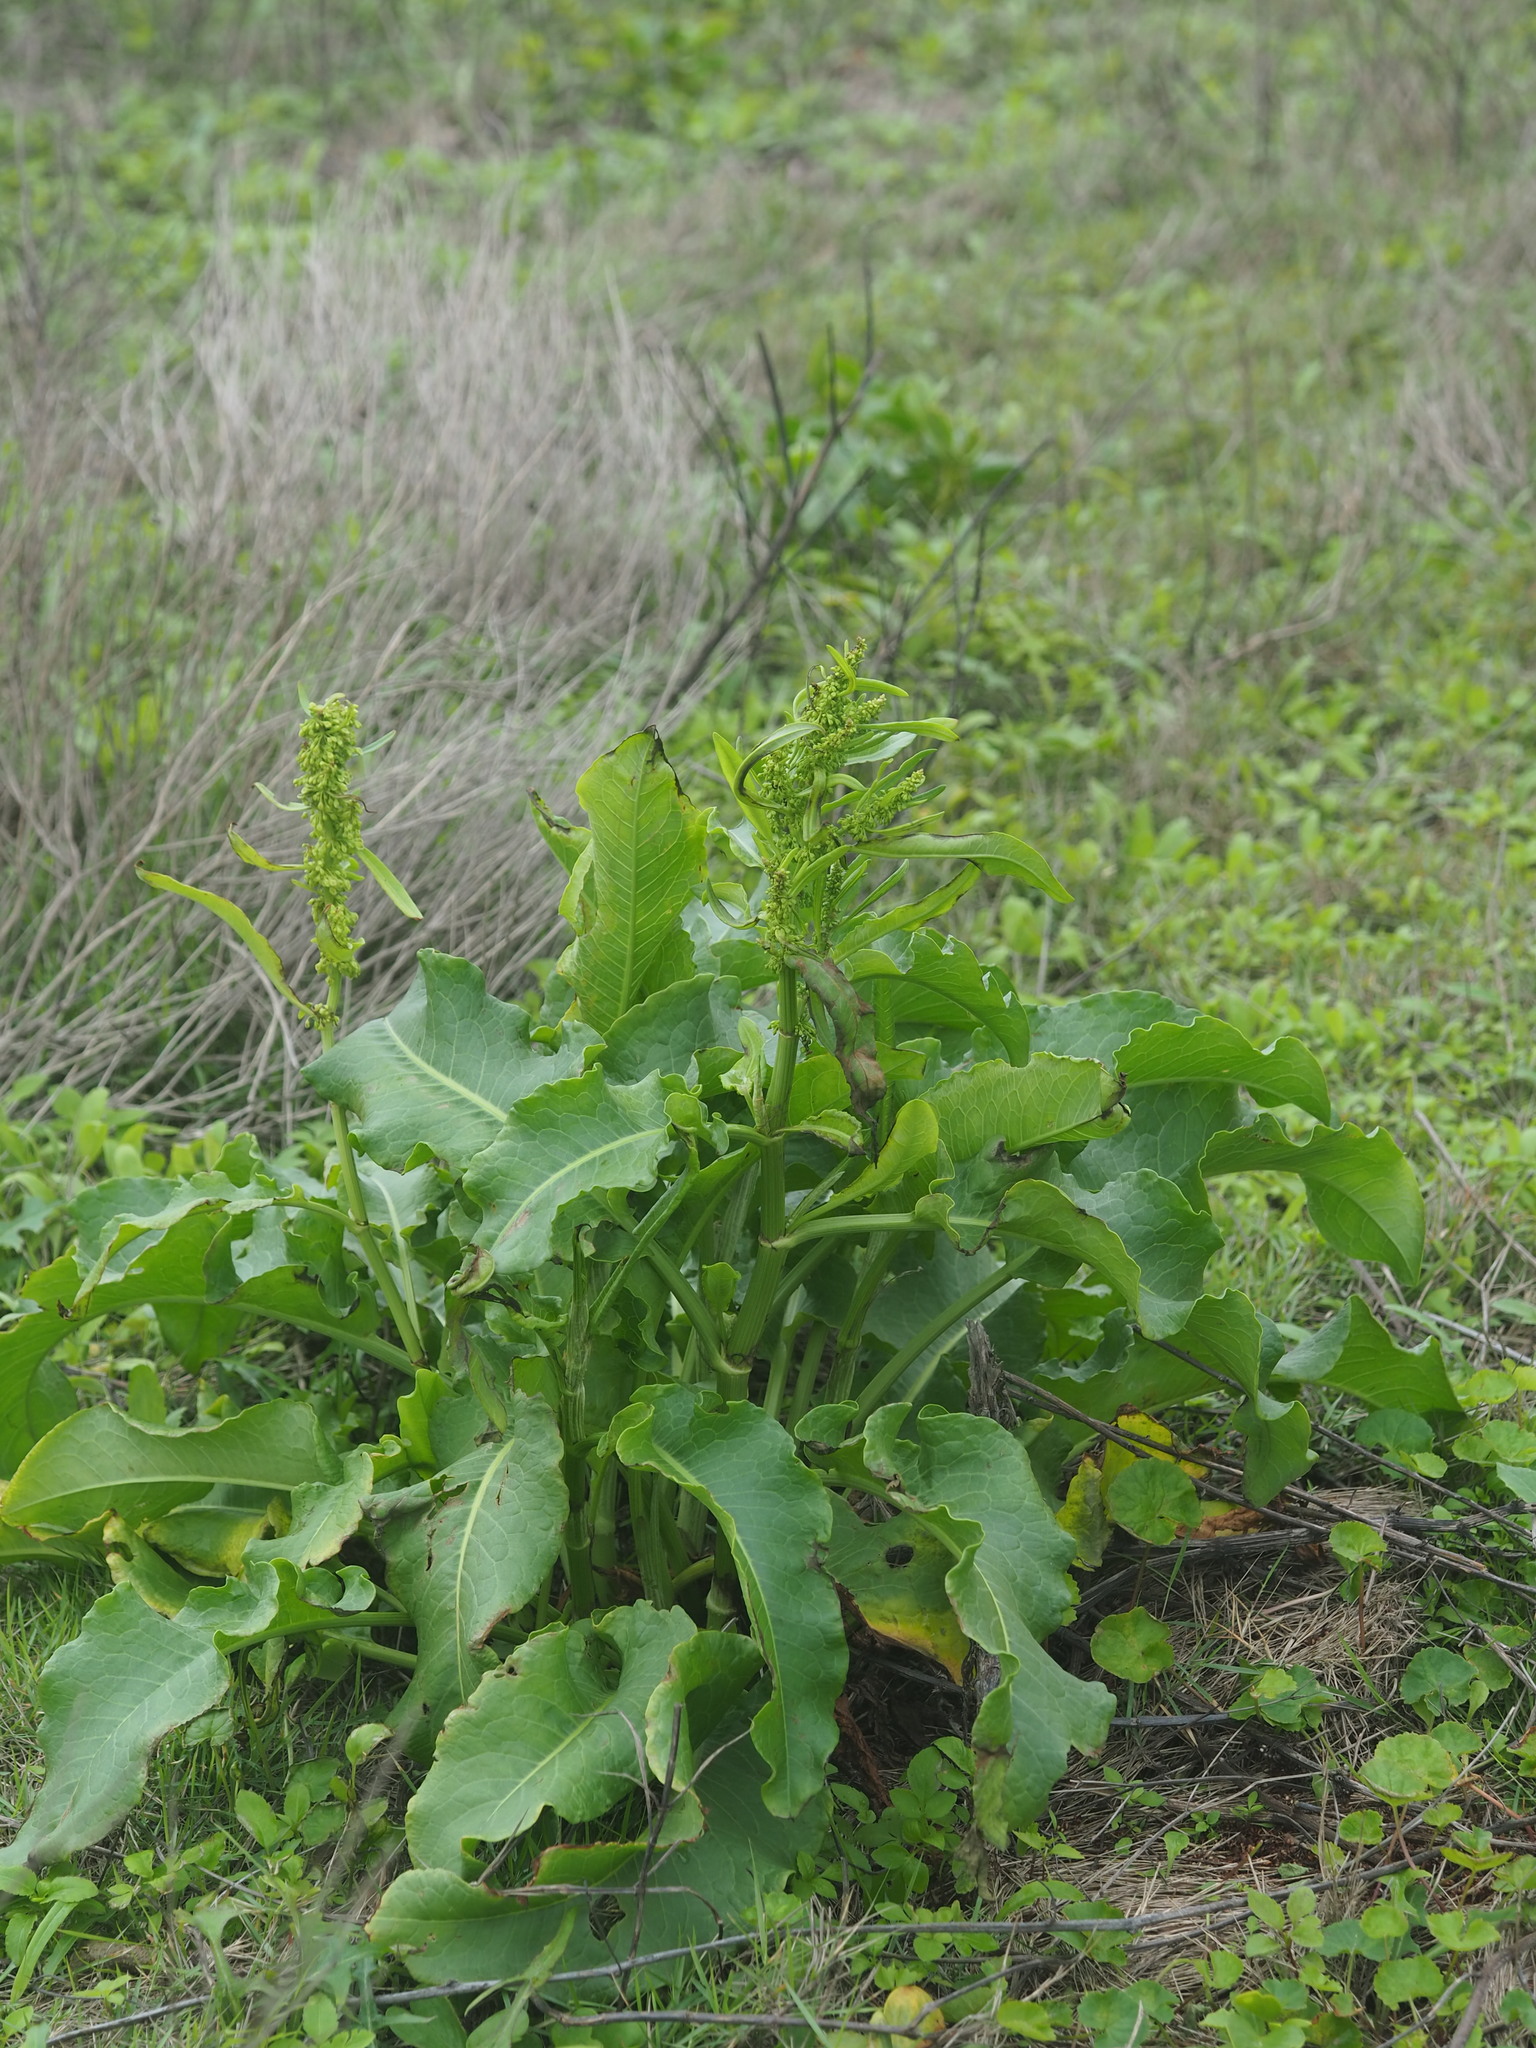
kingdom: Plantae
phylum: Tracheophyta
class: Magnoliopsida
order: Caryophyllales
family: Polygonaceae
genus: Rumex
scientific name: Rumex japonicus
